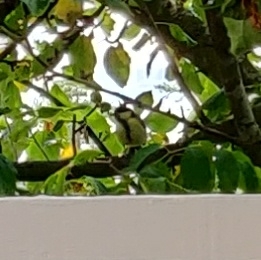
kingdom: Animalia
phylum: Chordata
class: Aves
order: Passeriformes
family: Paridae
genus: Parus
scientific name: Parus major
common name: Great tit
